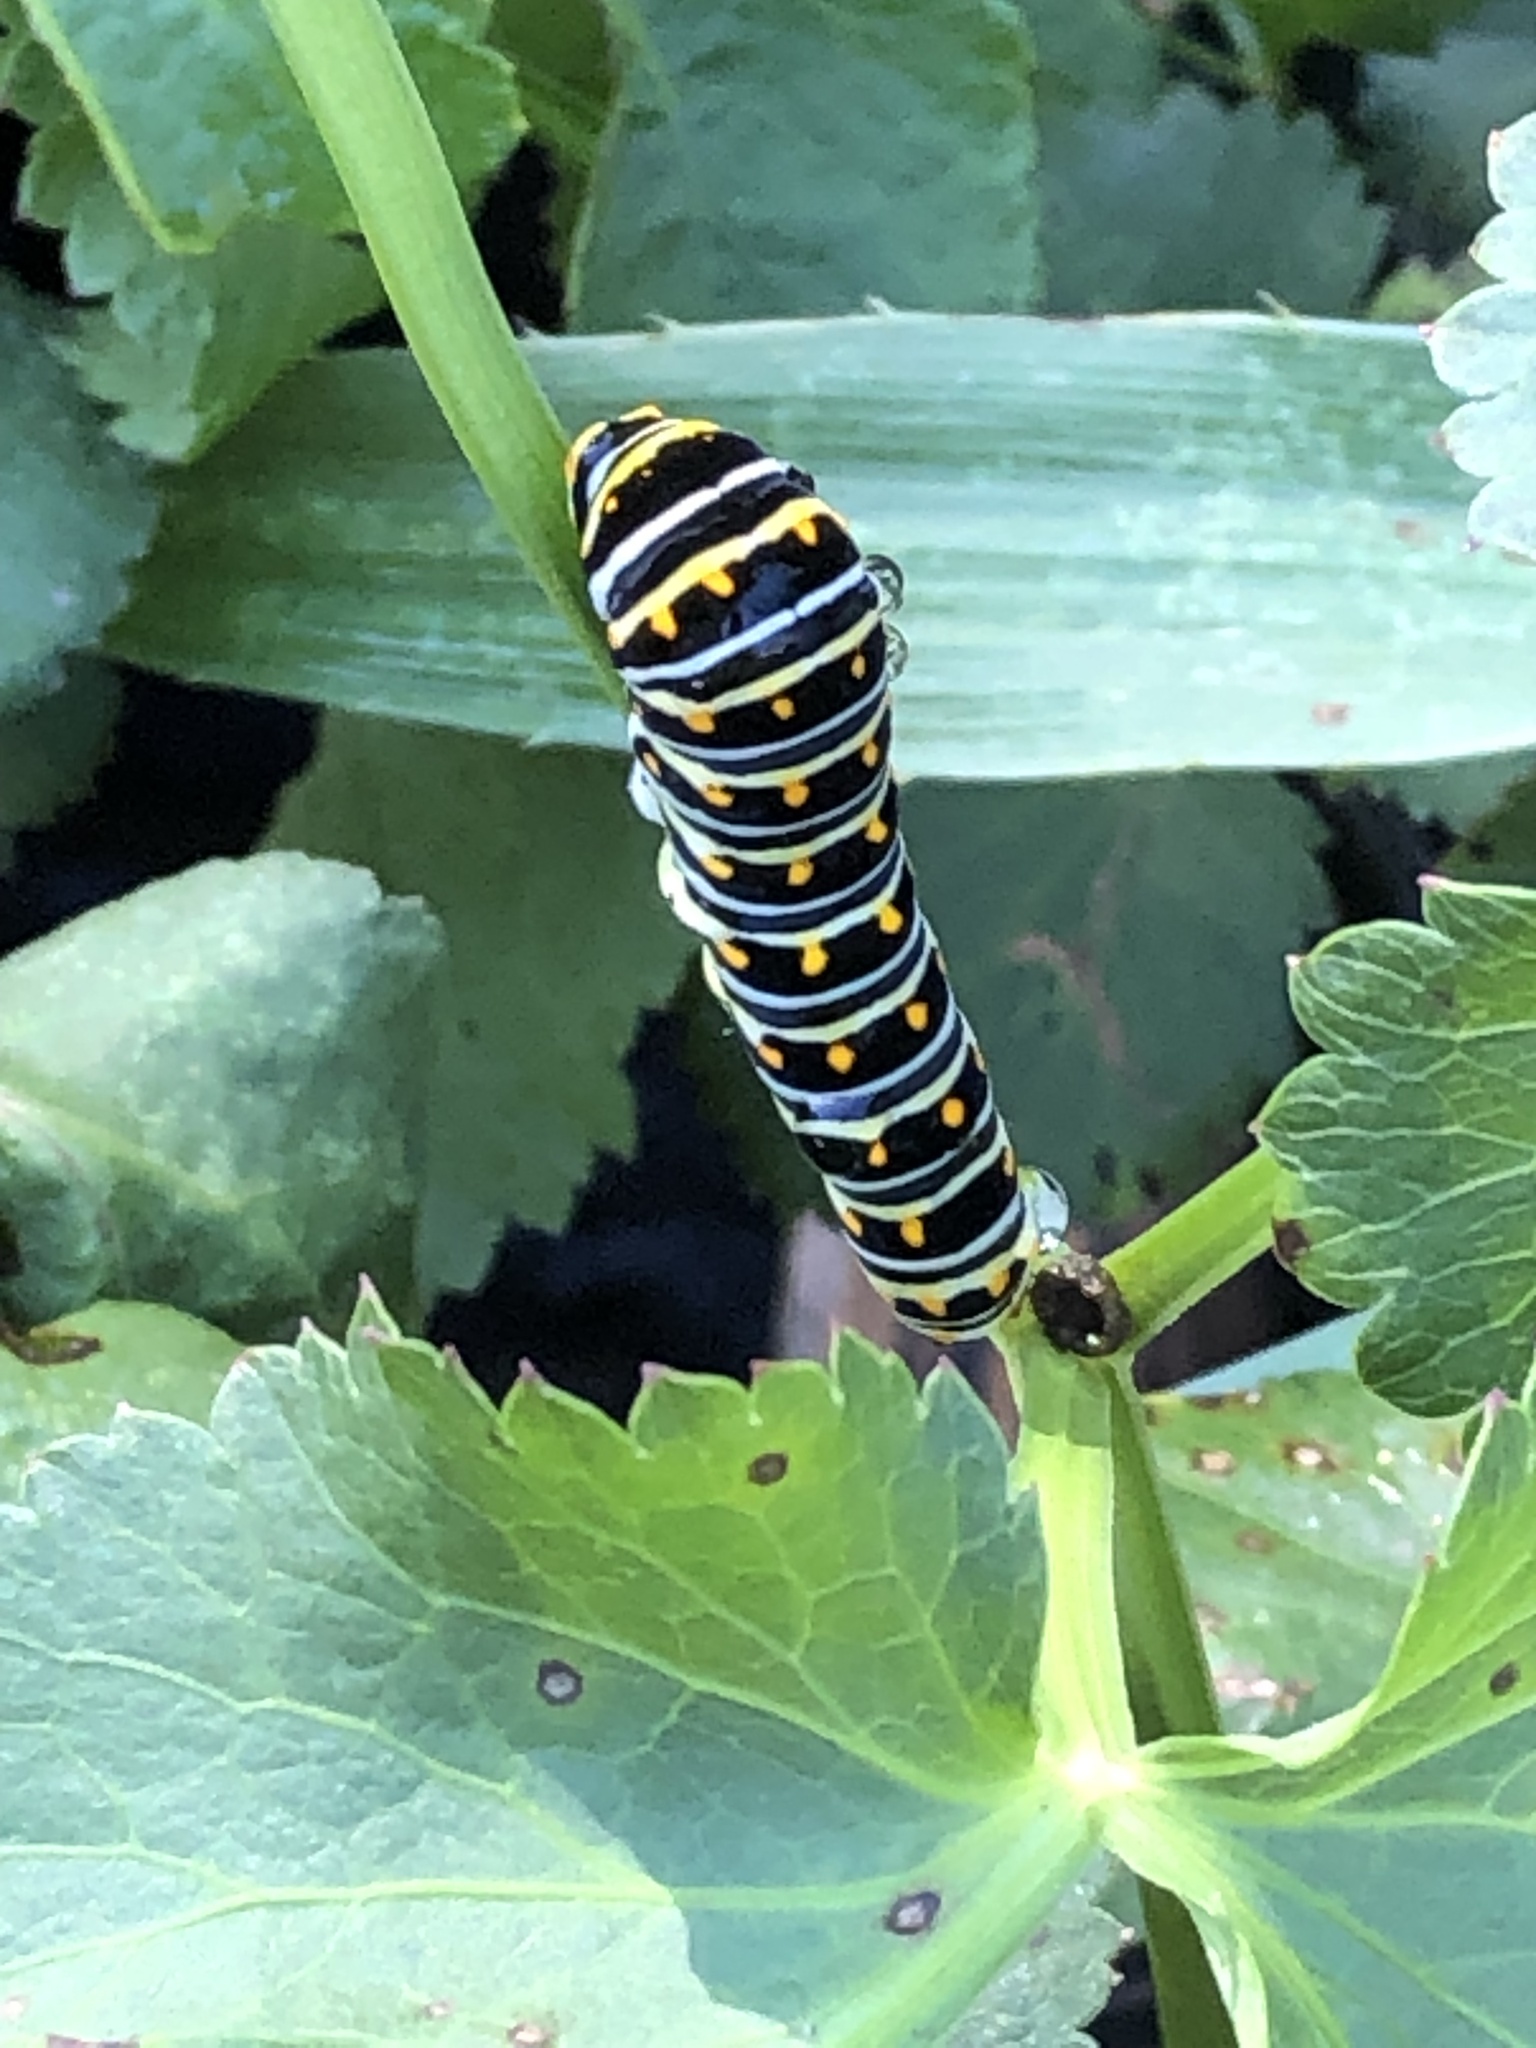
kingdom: Animalia
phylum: Arthropoda
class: Insecta
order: Lepidoptera
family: Papilionidae
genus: Papilio
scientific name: Papilio polyxenes
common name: Black swallowtail
